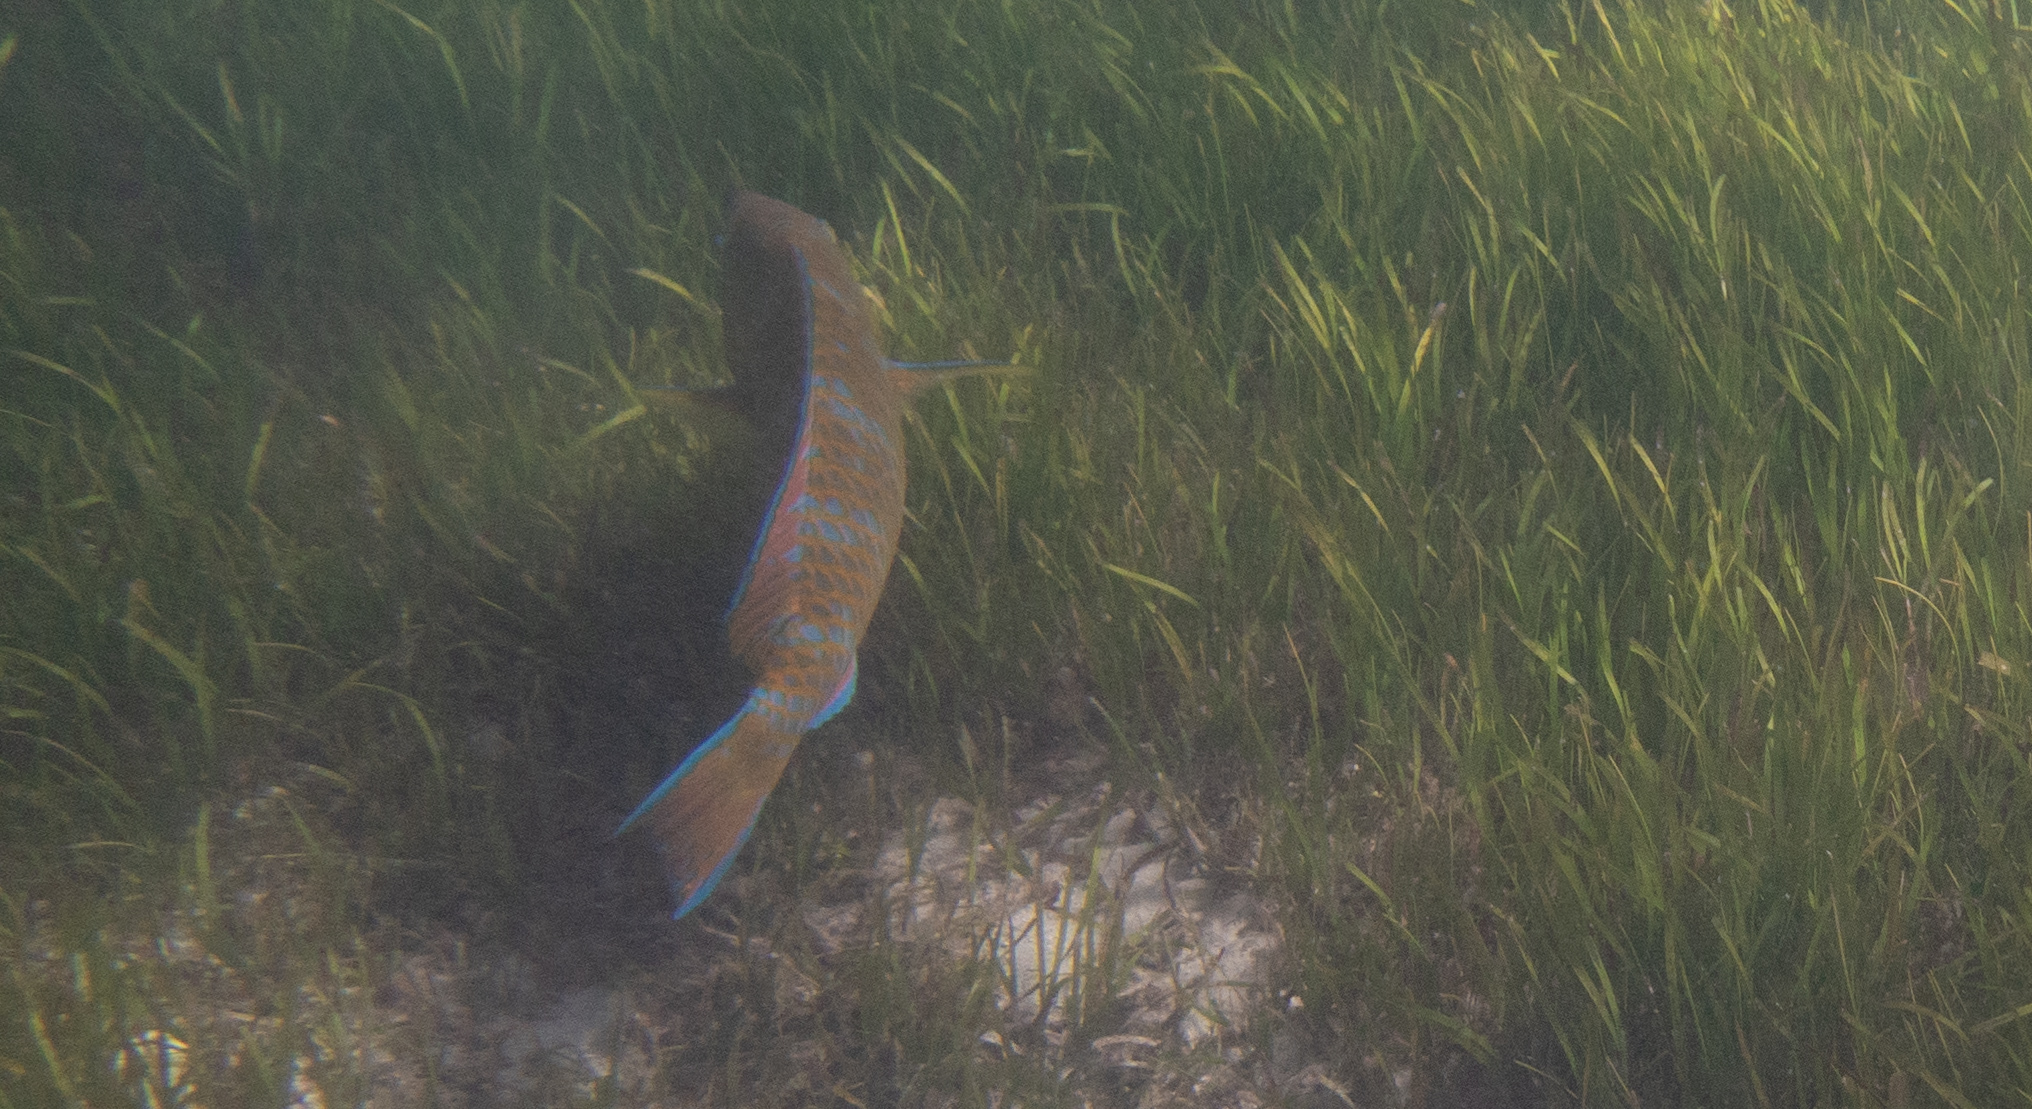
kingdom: Animalia
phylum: Chordata
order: Perciformes
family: Scaridae
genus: Scarus
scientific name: Scarus ghobban
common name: Blue-barred parrotfish
